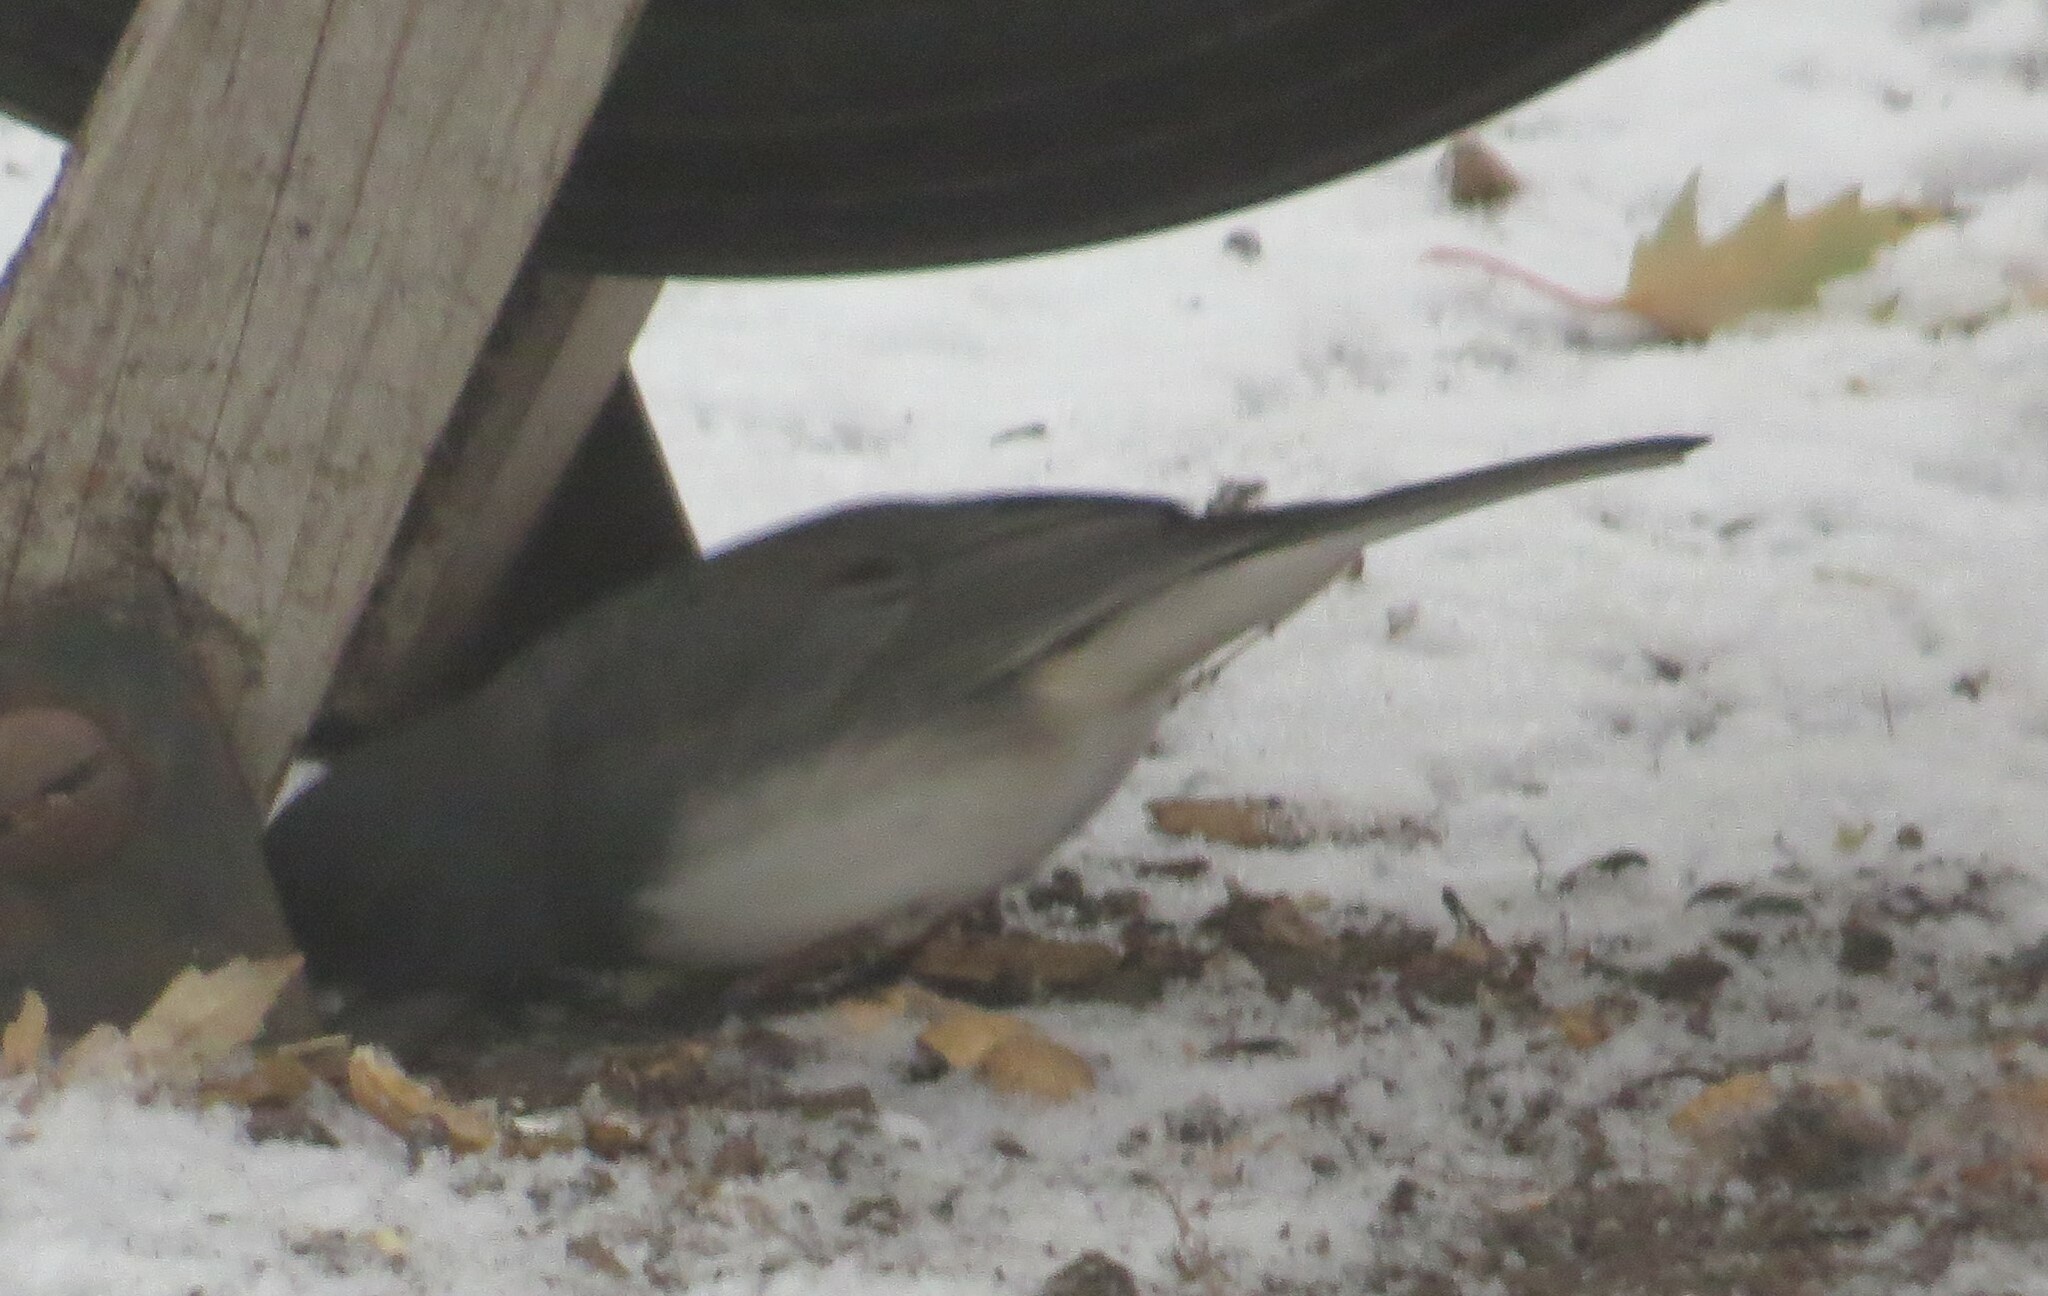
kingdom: Animalia
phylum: Chordata
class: Aves
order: Passeriformes
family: Passerellidae
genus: Junco
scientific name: Junco hyemalis
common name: Dark-eyed junco
